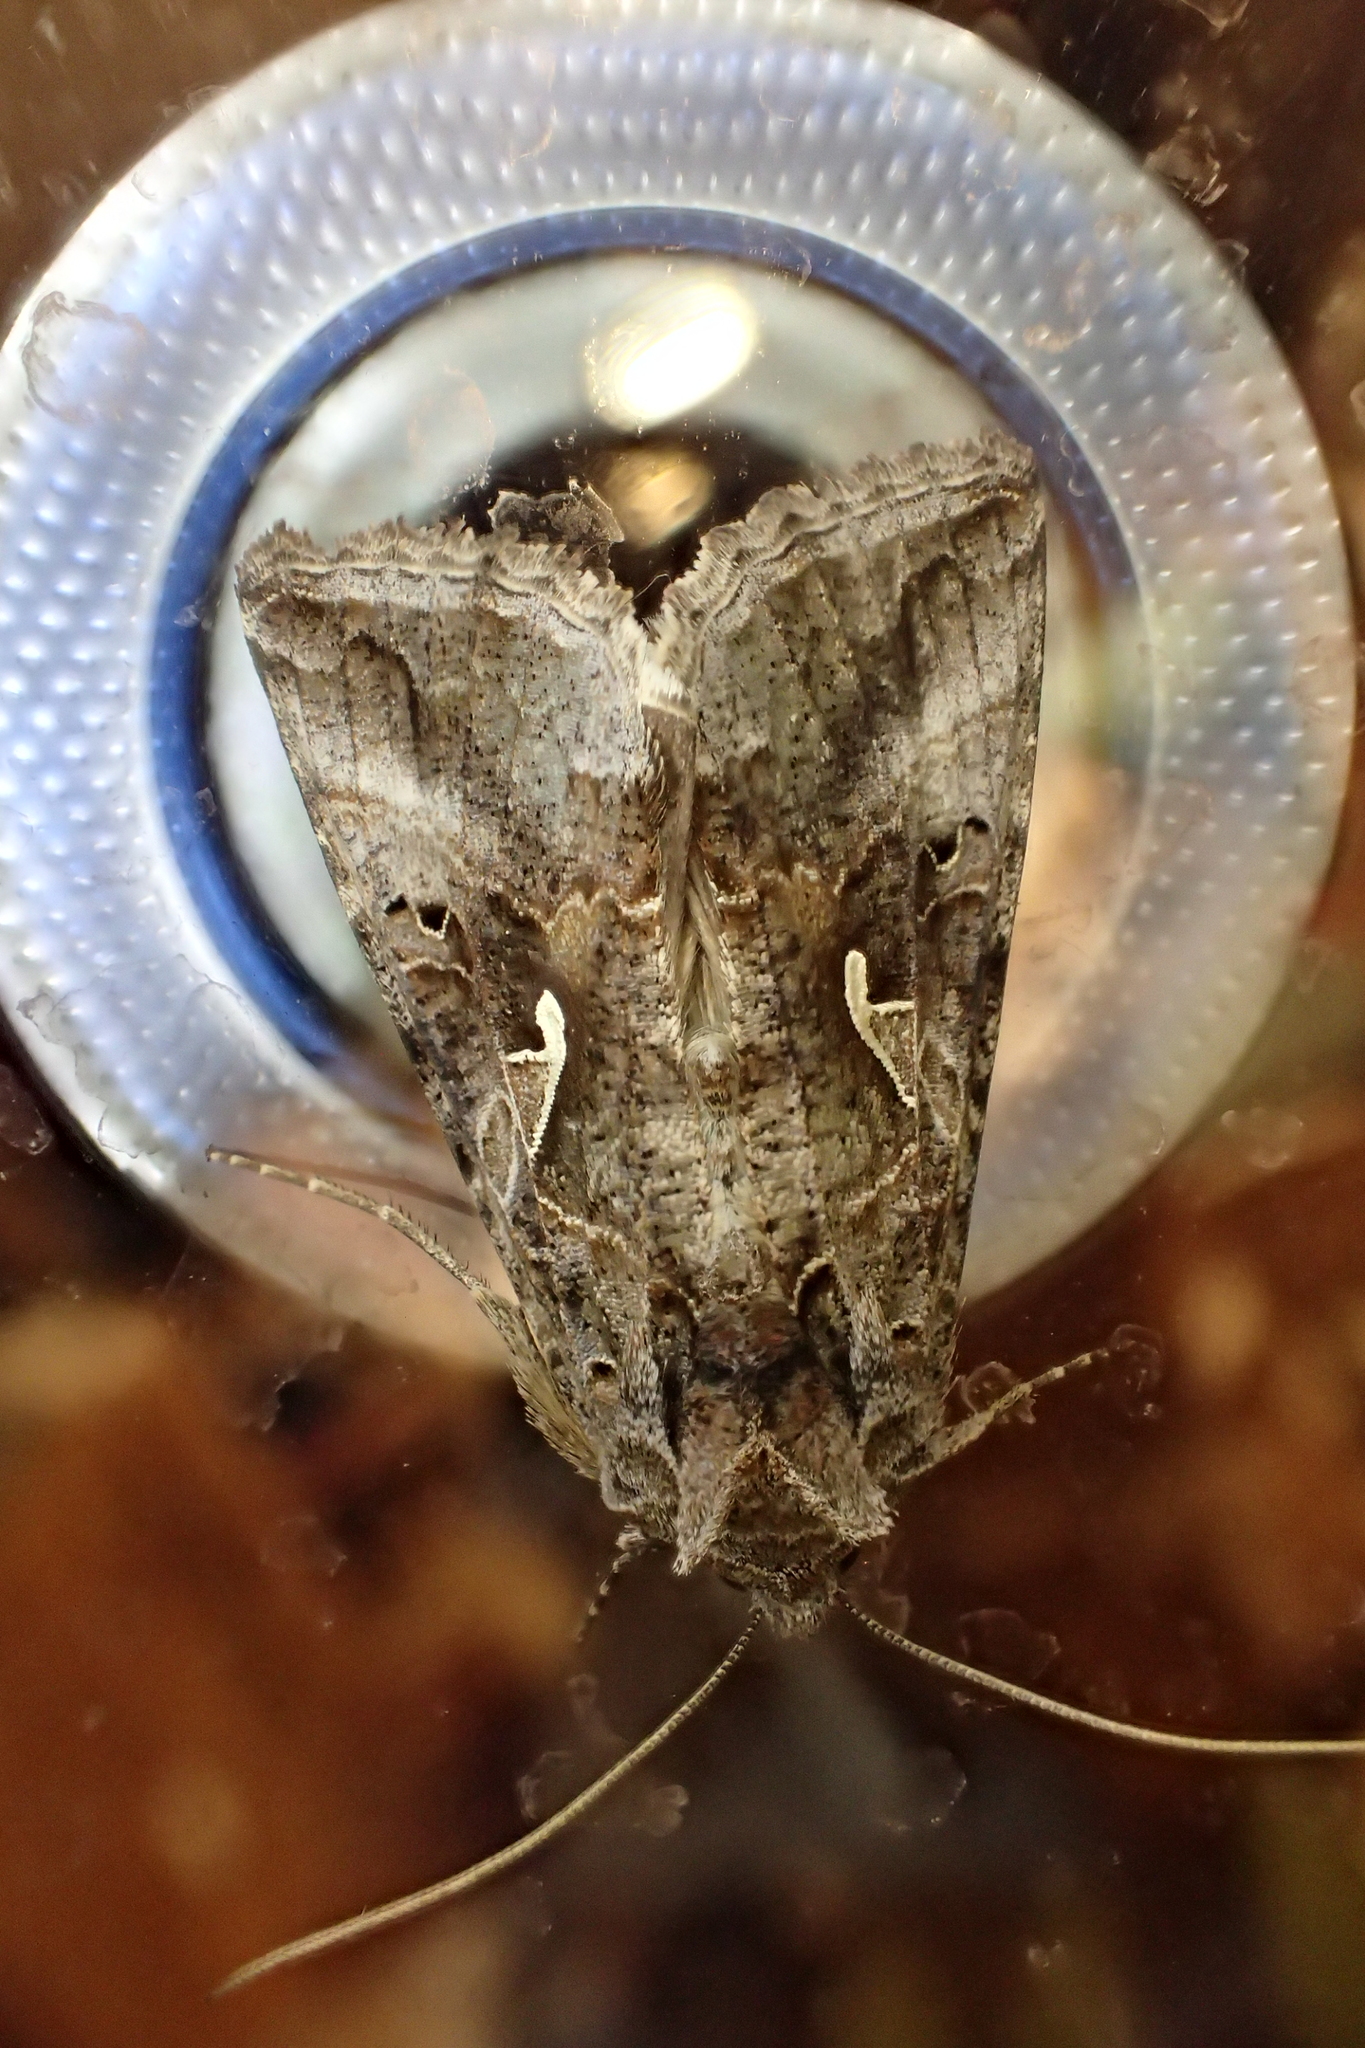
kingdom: Animalia
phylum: Arthropoda
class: Insecta
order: Lepidoptera
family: Noctuidae
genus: Autographa
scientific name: Autographa gamma
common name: Silver y
